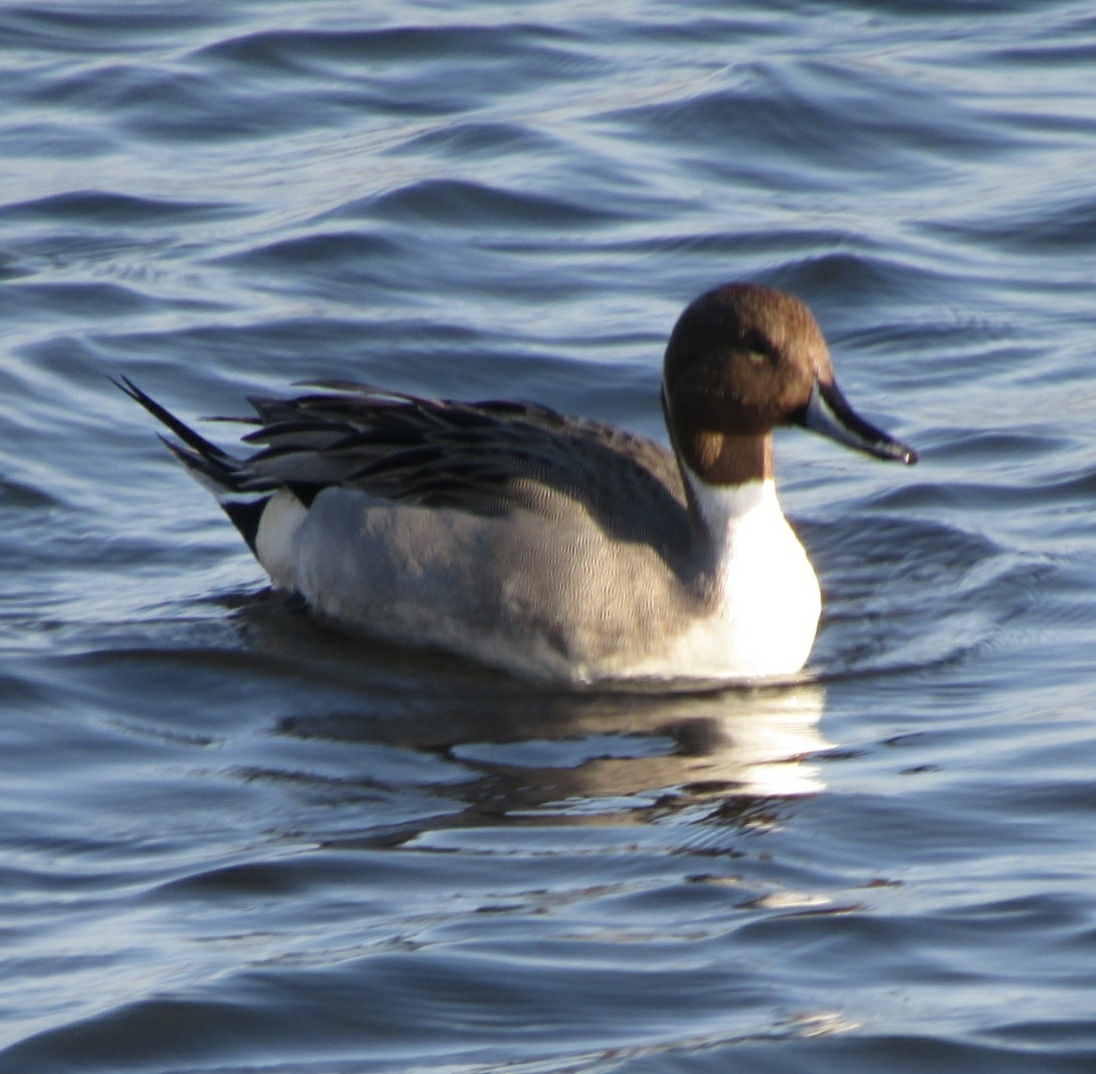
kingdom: Animalia
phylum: Chordata
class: Aves
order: Anseriformes
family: Anatidae
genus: Anas
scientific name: Anas acuta
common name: Northern pintail
